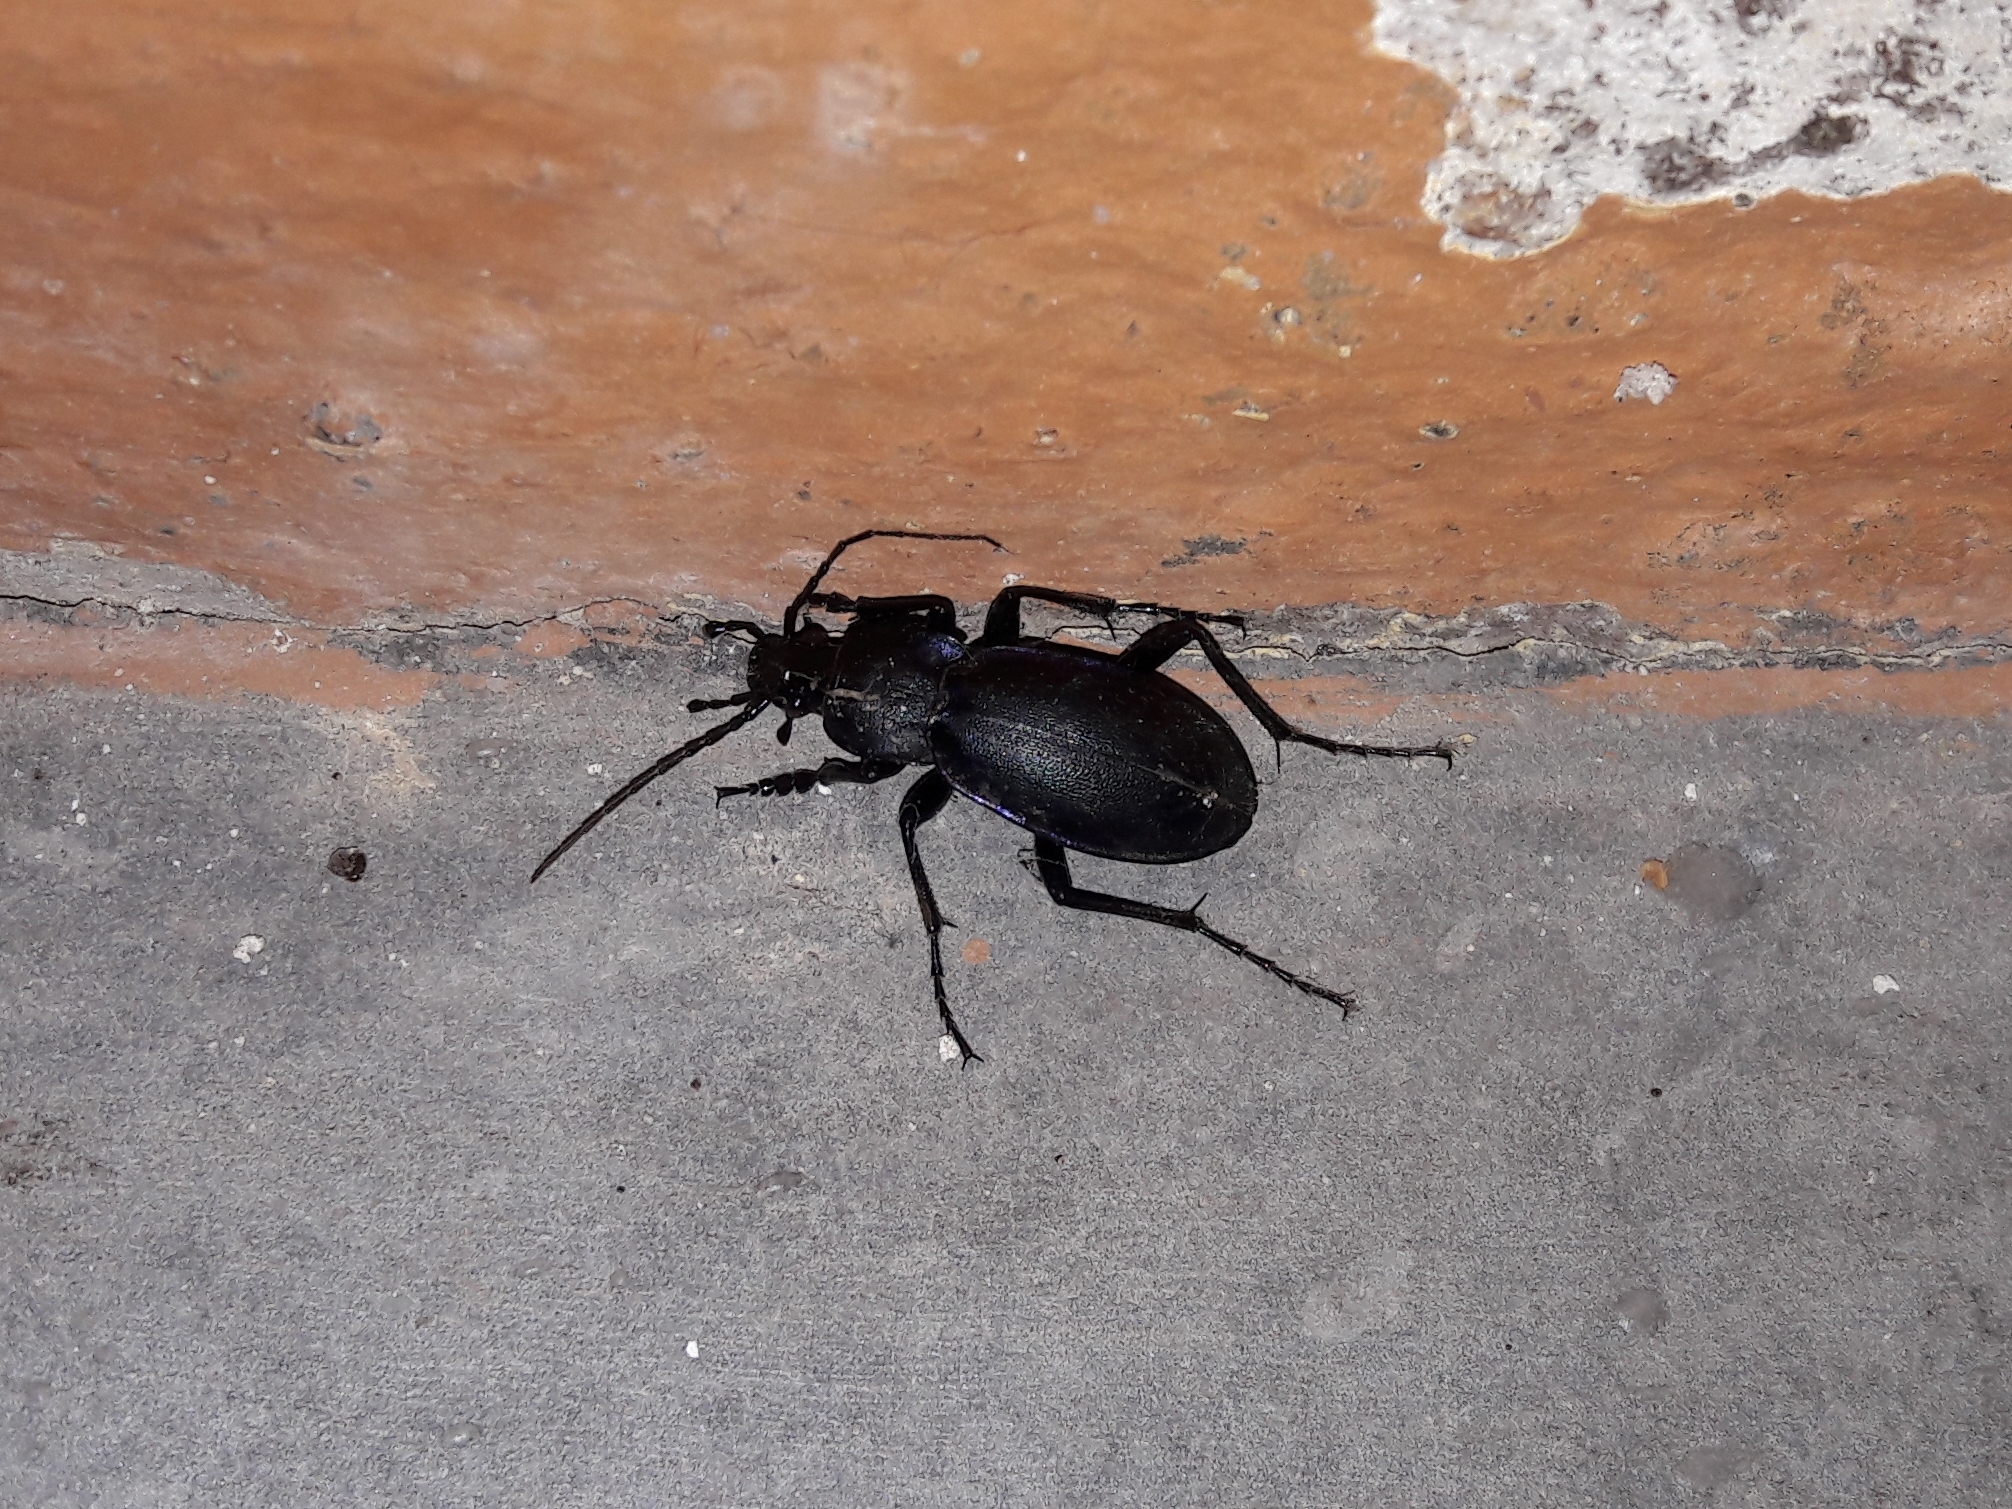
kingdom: Animalia
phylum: Arthropoda
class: Insecta
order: Coleoptera
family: Carabidae
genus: Carabus
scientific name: Carabus germarii
